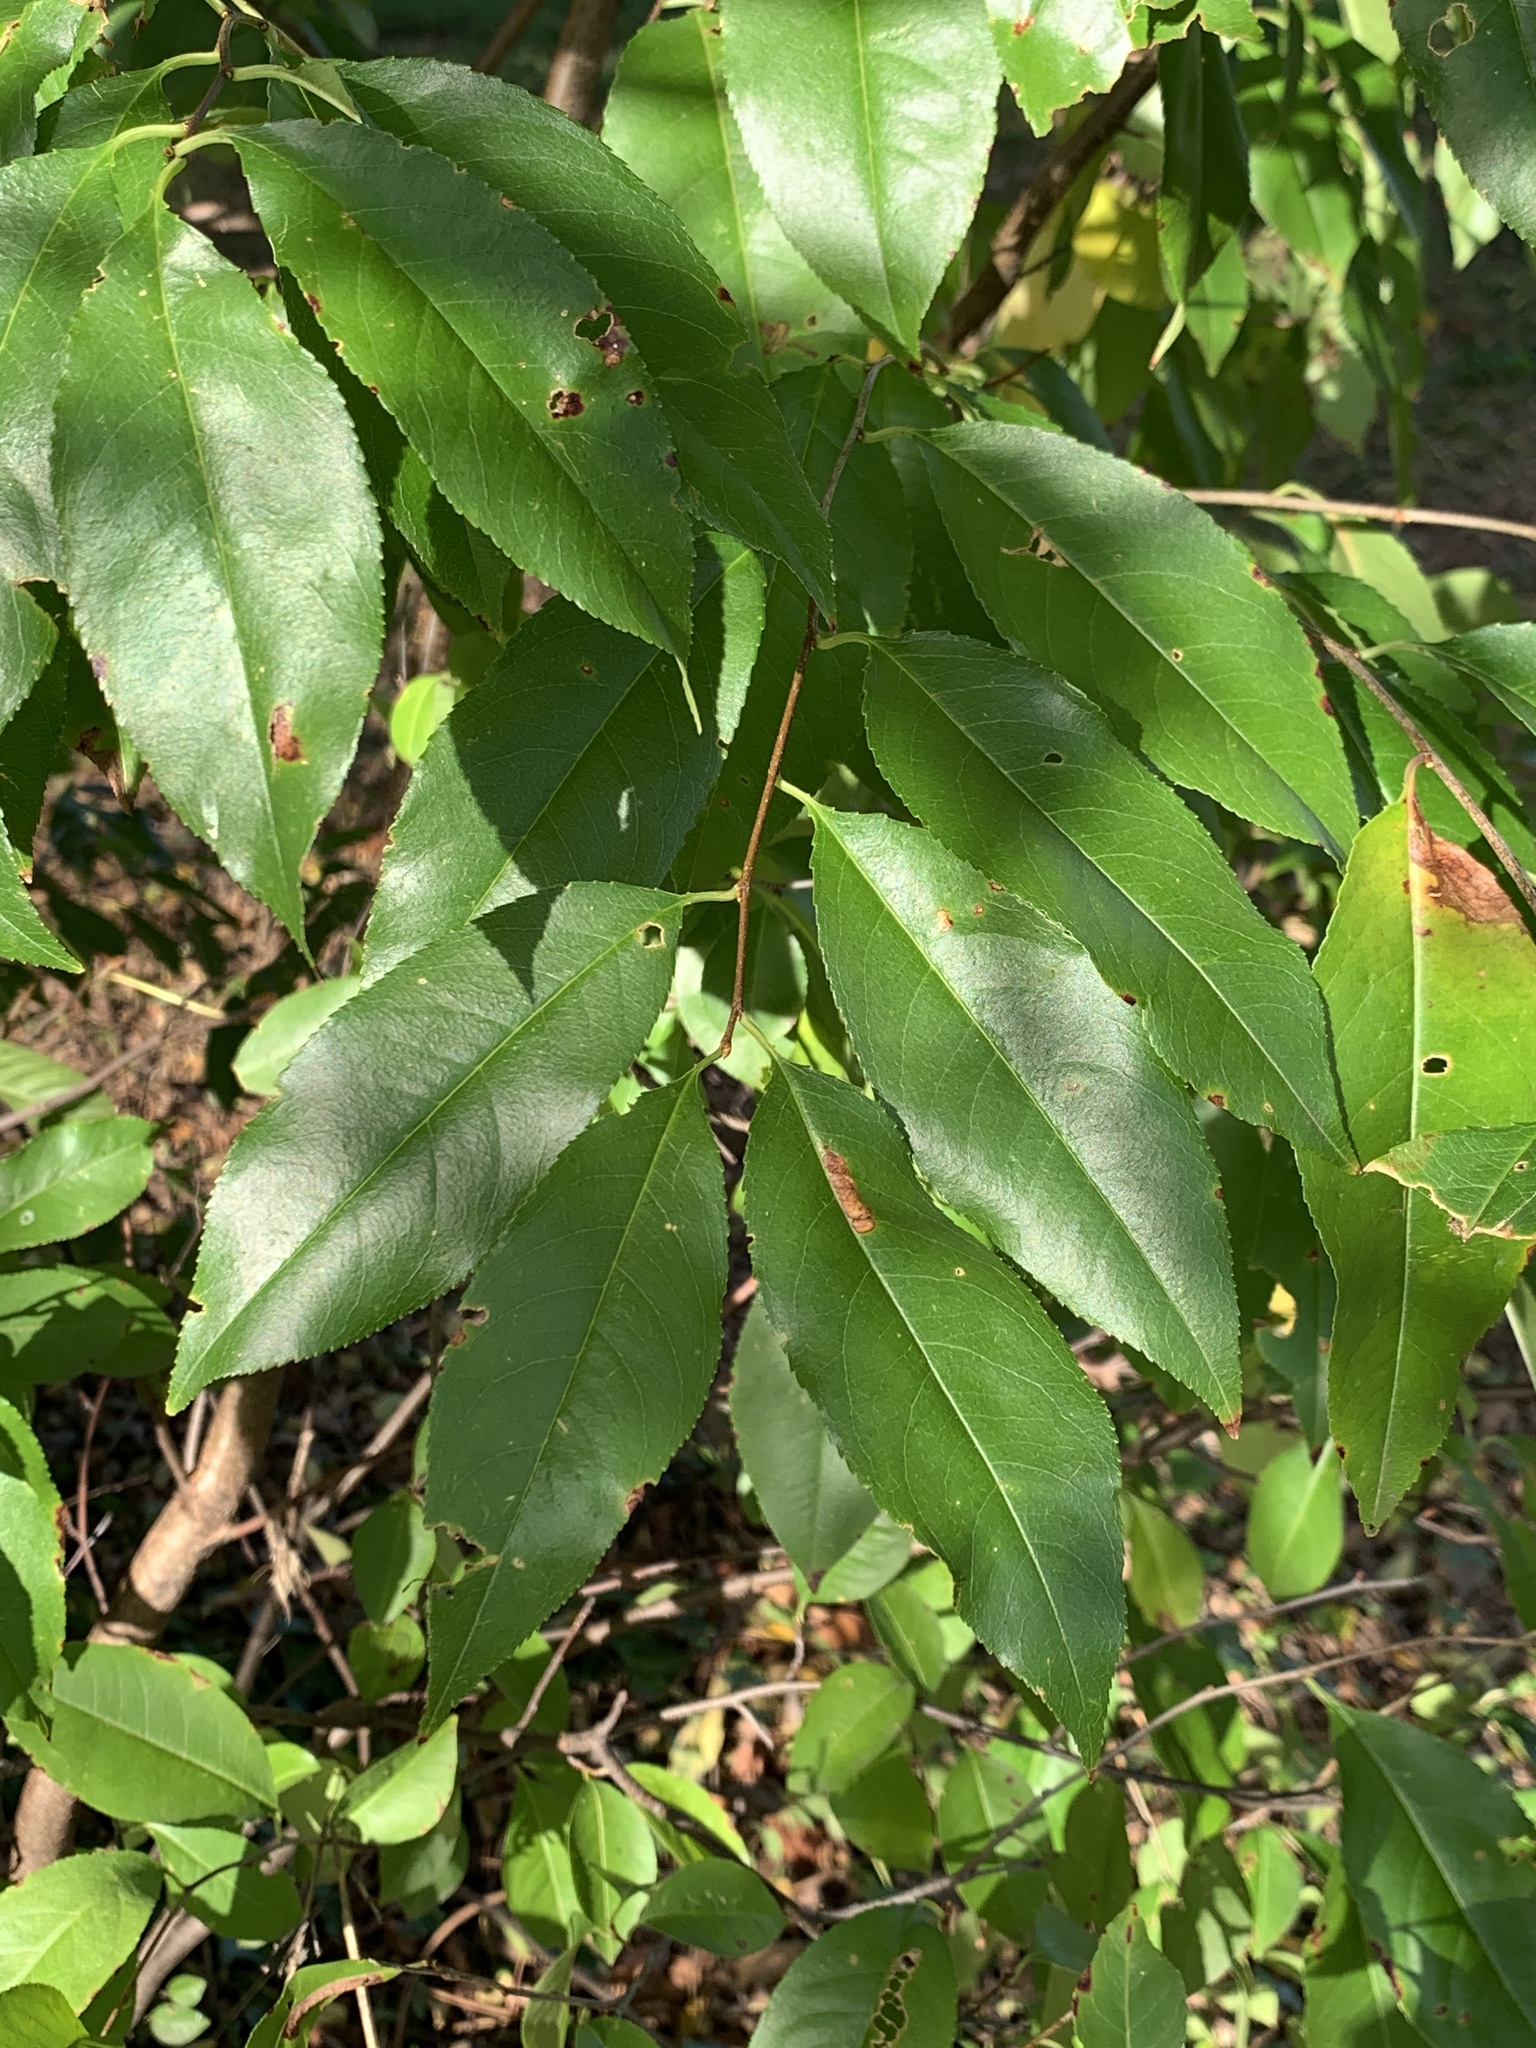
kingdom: Plantae
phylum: Tracheophyta
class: Magnoliopsida
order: Rosales
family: Rosaceae
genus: Prunus
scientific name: Prunus serotina
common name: Black cherry
